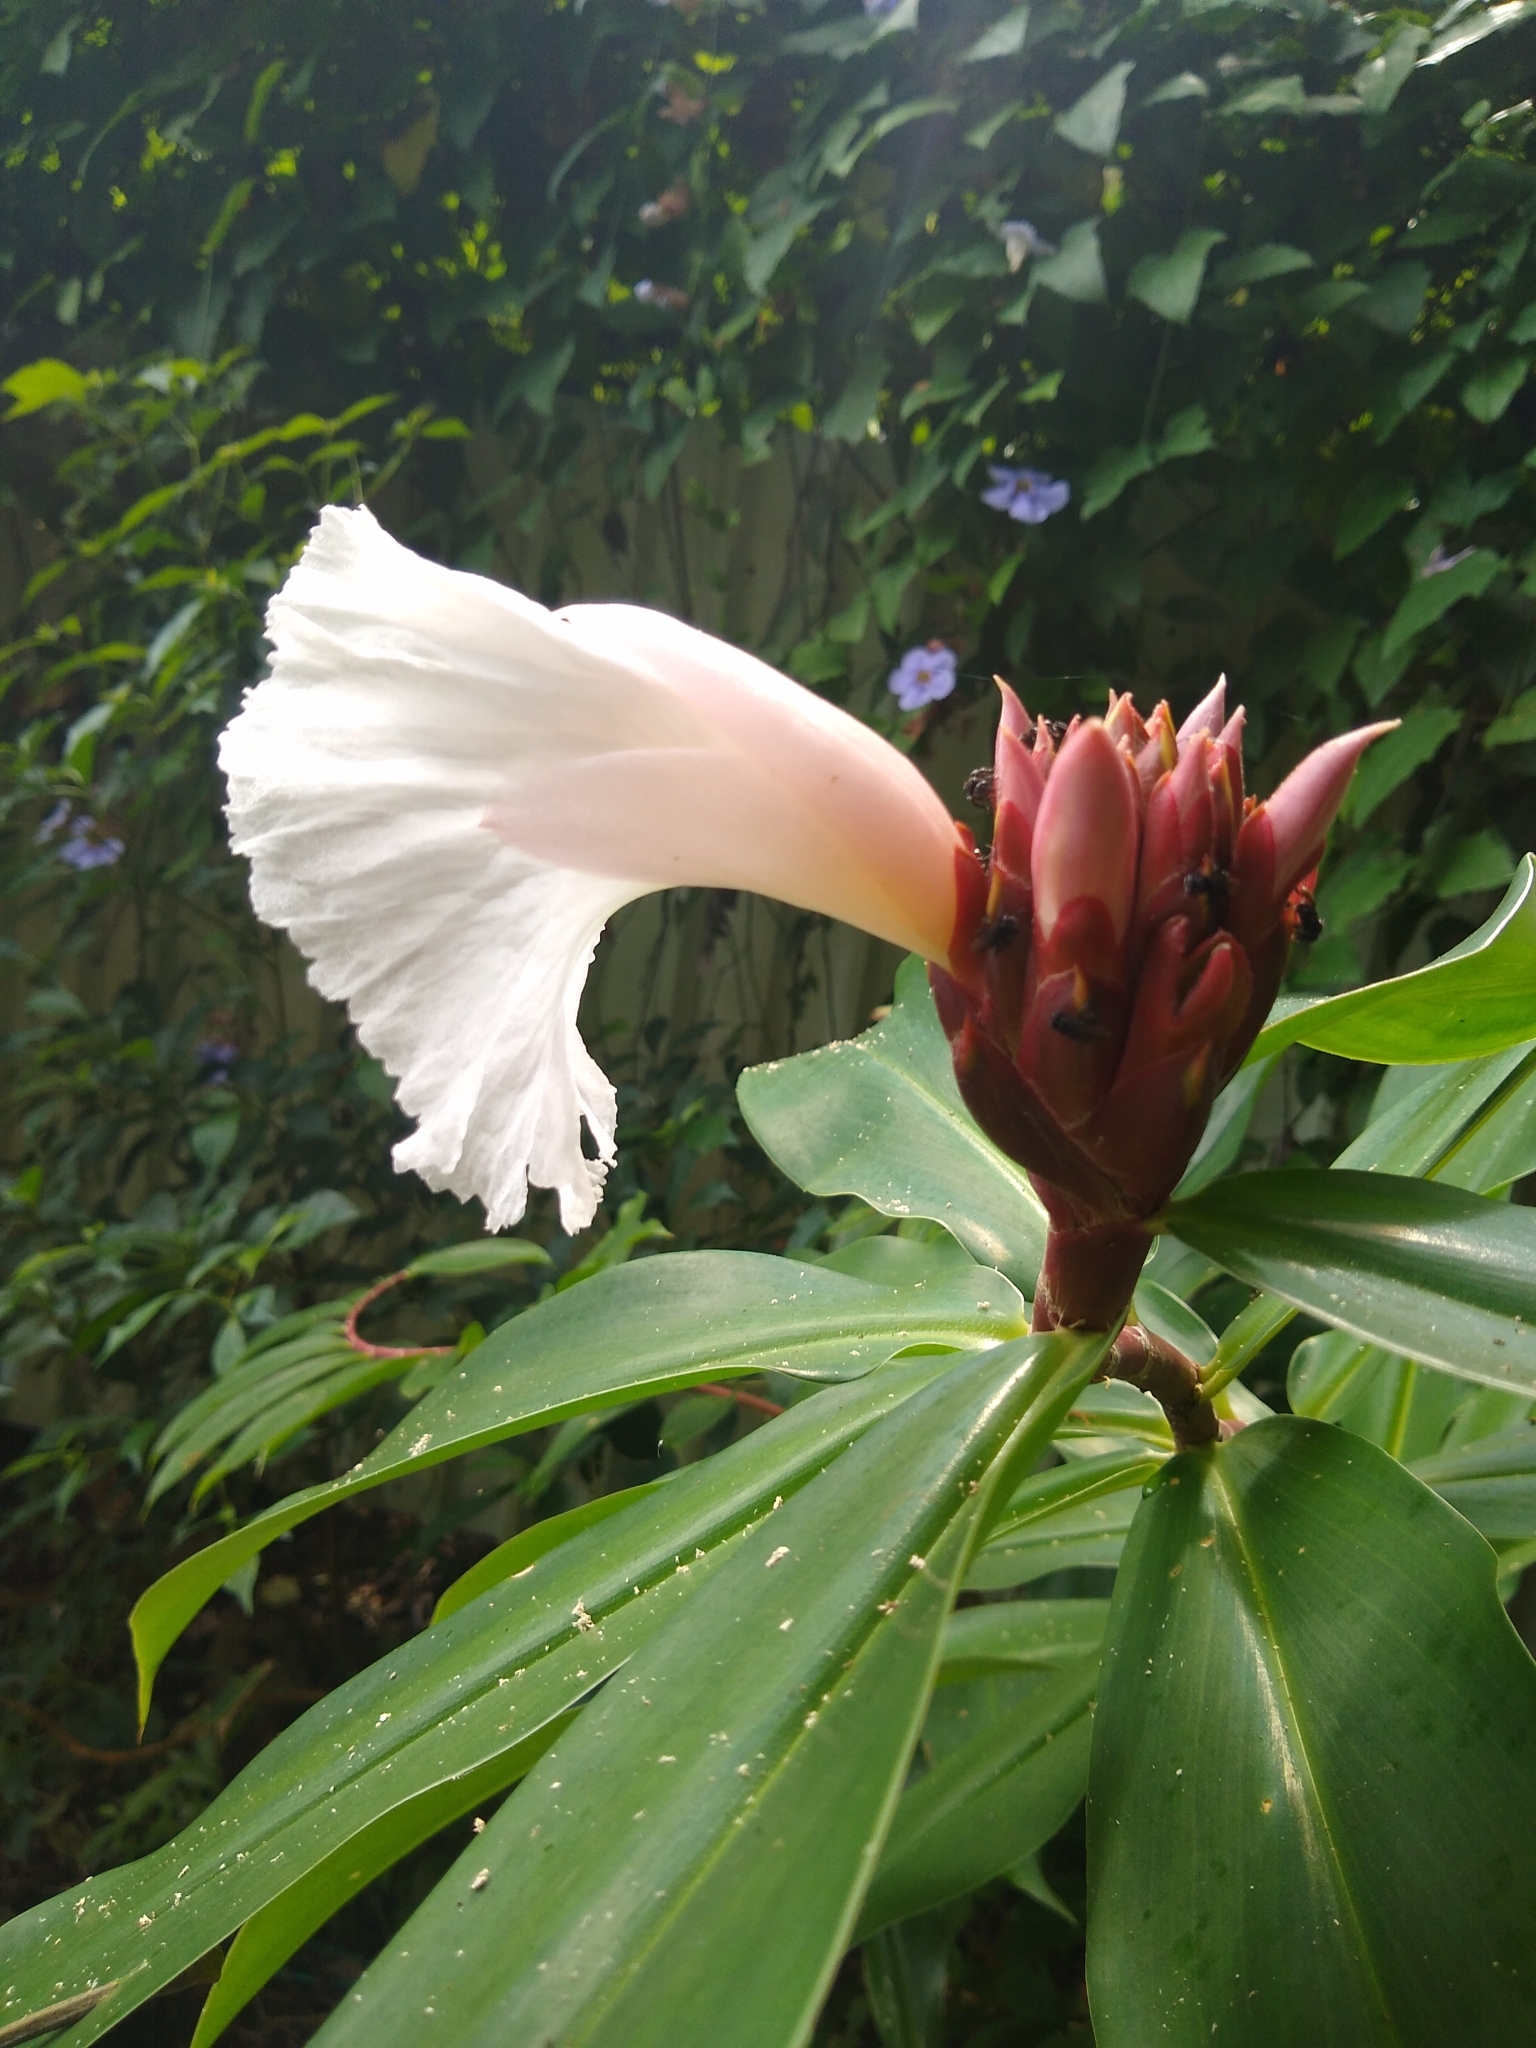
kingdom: Plantae
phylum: Tracheophyta
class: Liliopsida
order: Zingiberales
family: Costaceae
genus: Hellenia
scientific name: Hellenia speciosa
